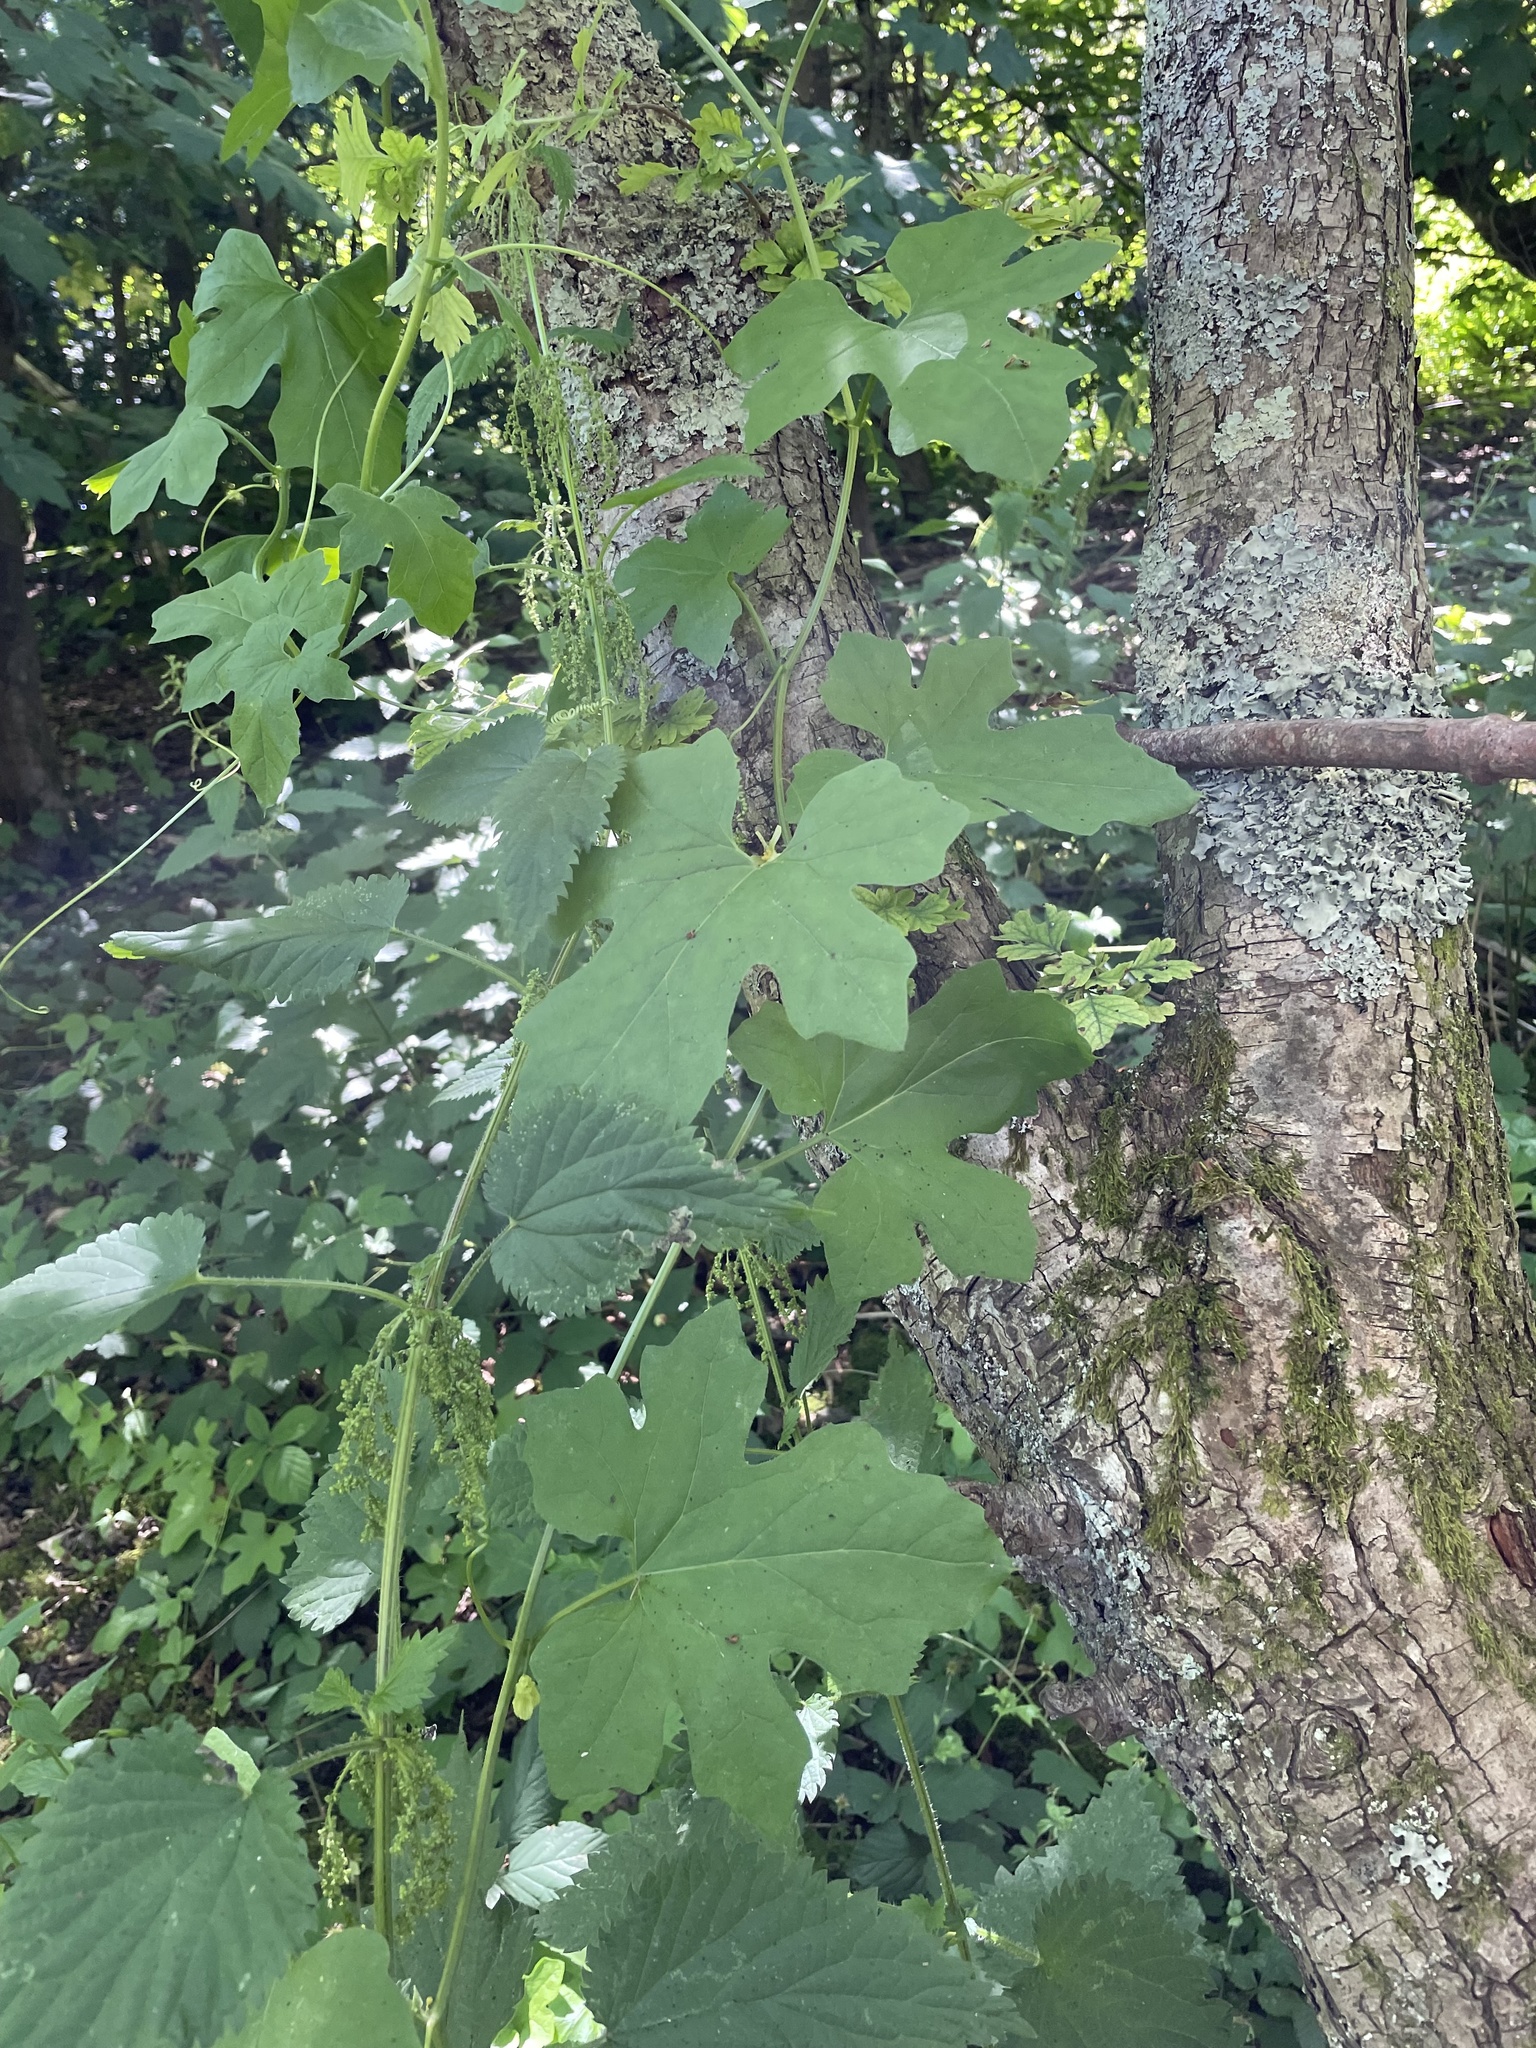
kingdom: Plantae
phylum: Tracheophyta
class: Magnoliopsida
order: Cucurbitales
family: Cucurbitaceae
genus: Bryonia
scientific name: Bryonia cretica
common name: Cretan bryony
